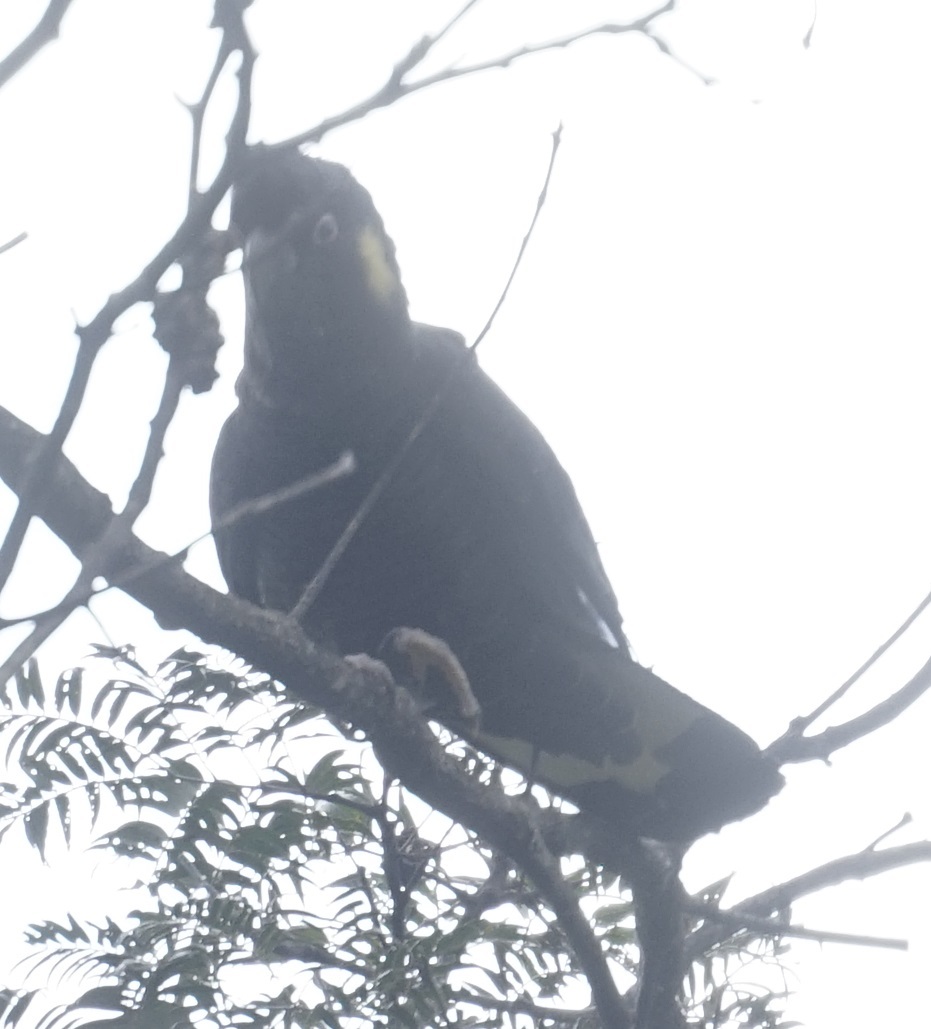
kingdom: Animalia
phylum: Chordata
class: Aves
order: Psittaciformes
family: Cacatuidae
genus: Zanda
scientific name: Zanda funerea
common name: Yellow-tailed black-cockatoo
